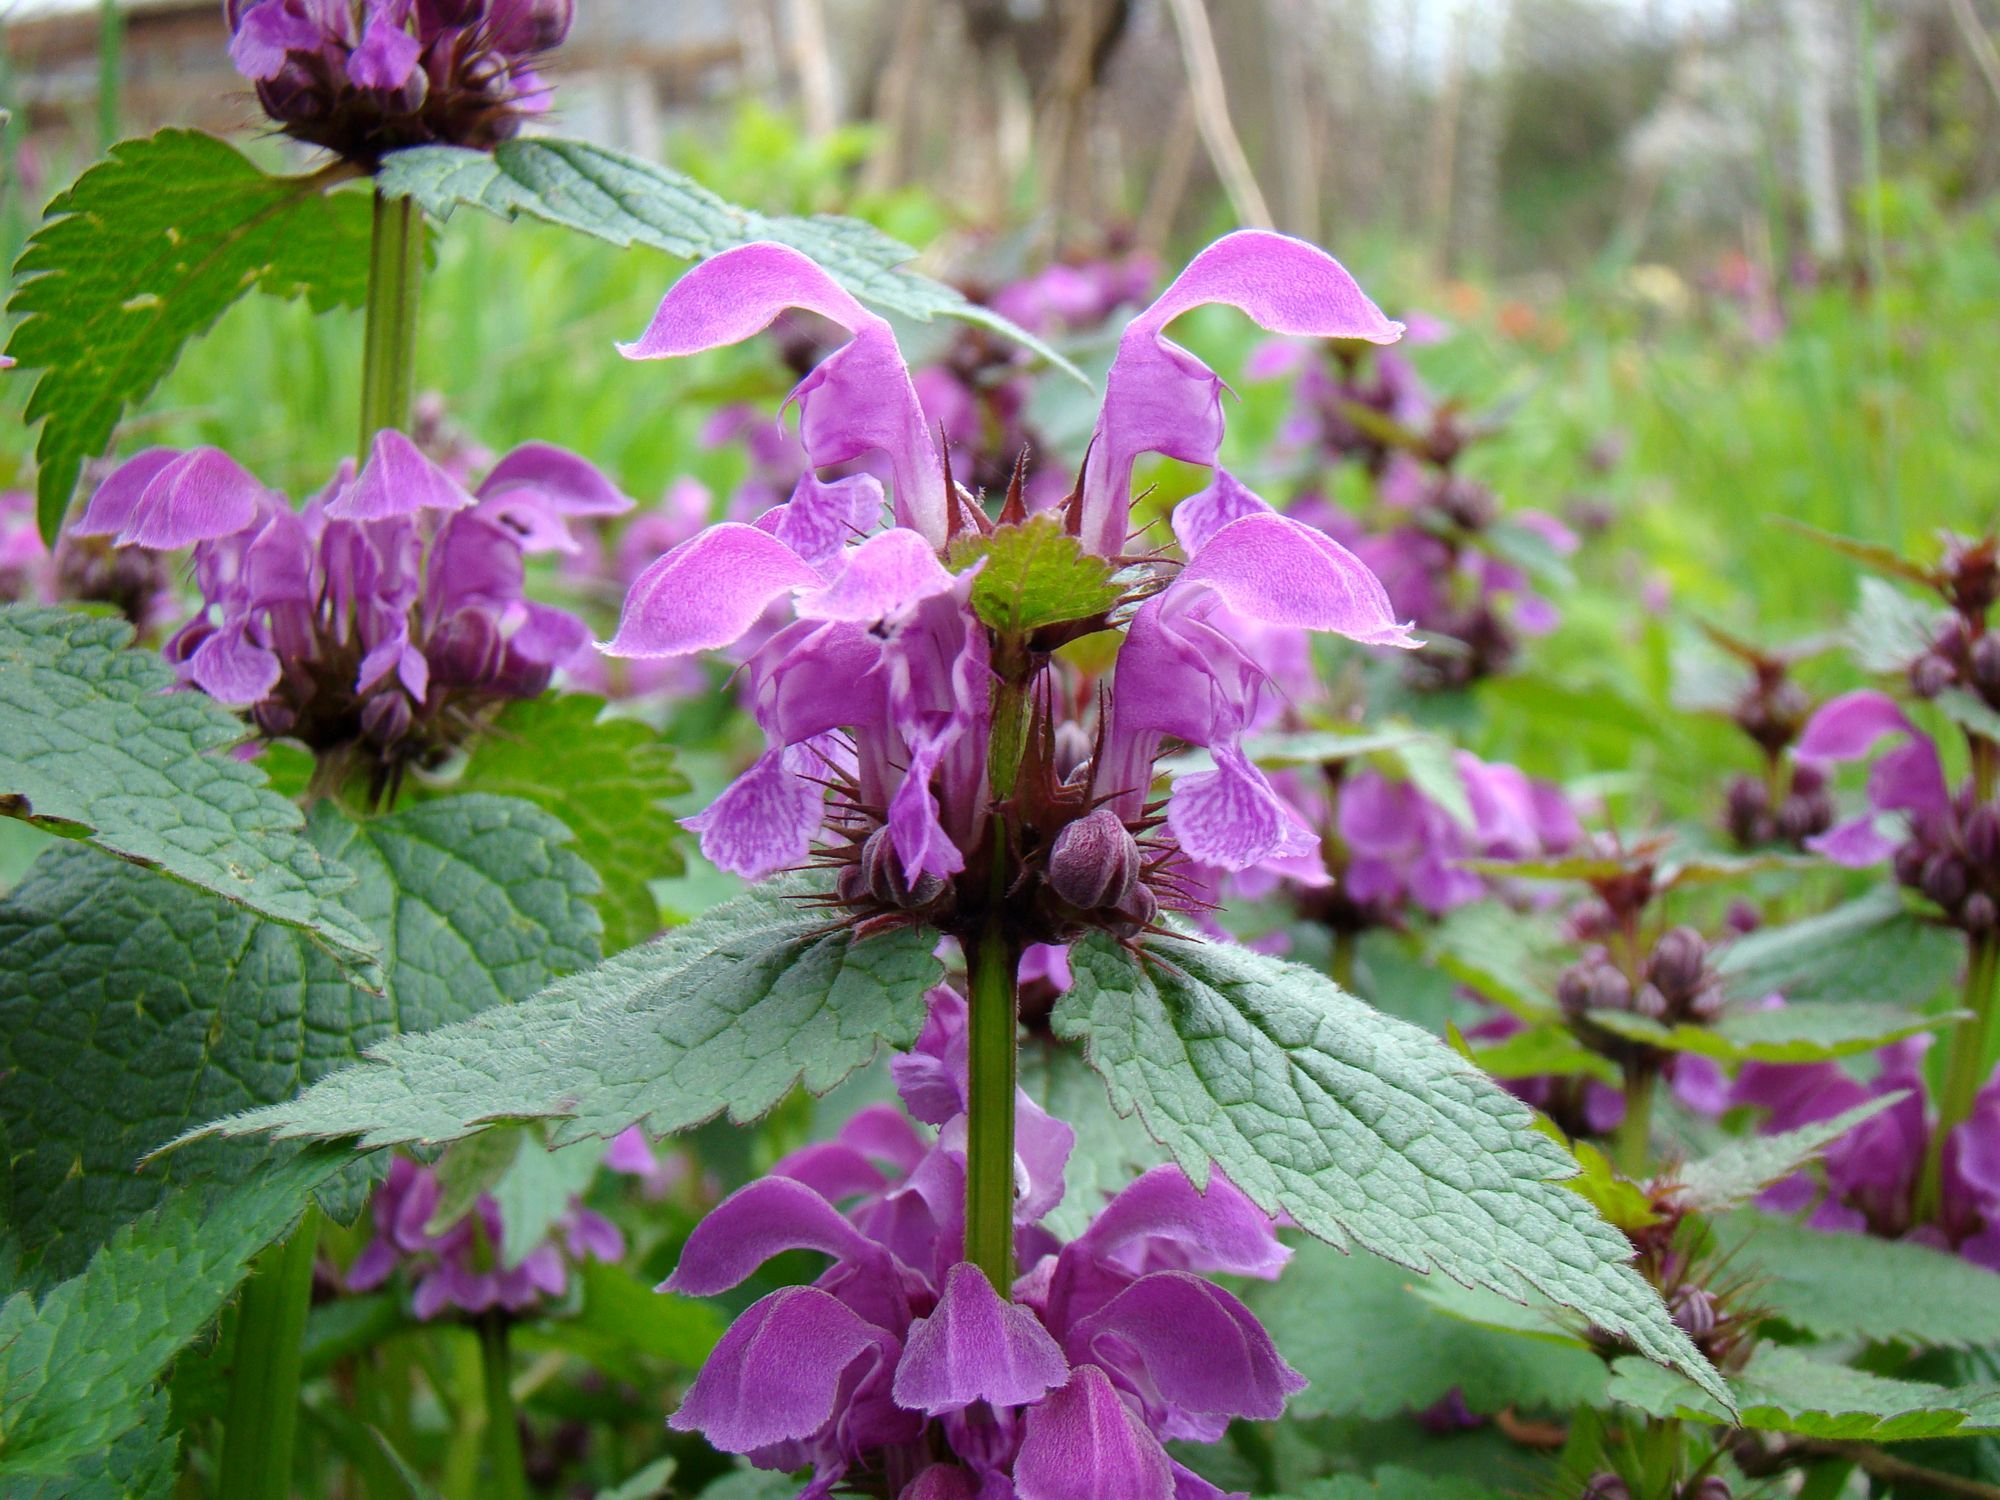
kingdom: Plantae
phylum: Tracheophyta
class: Magnoliopsida
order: Lamiales
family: Lamiaceae
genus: Lamium
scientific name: Lamium maculatum
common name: Spotted dead-nettle
